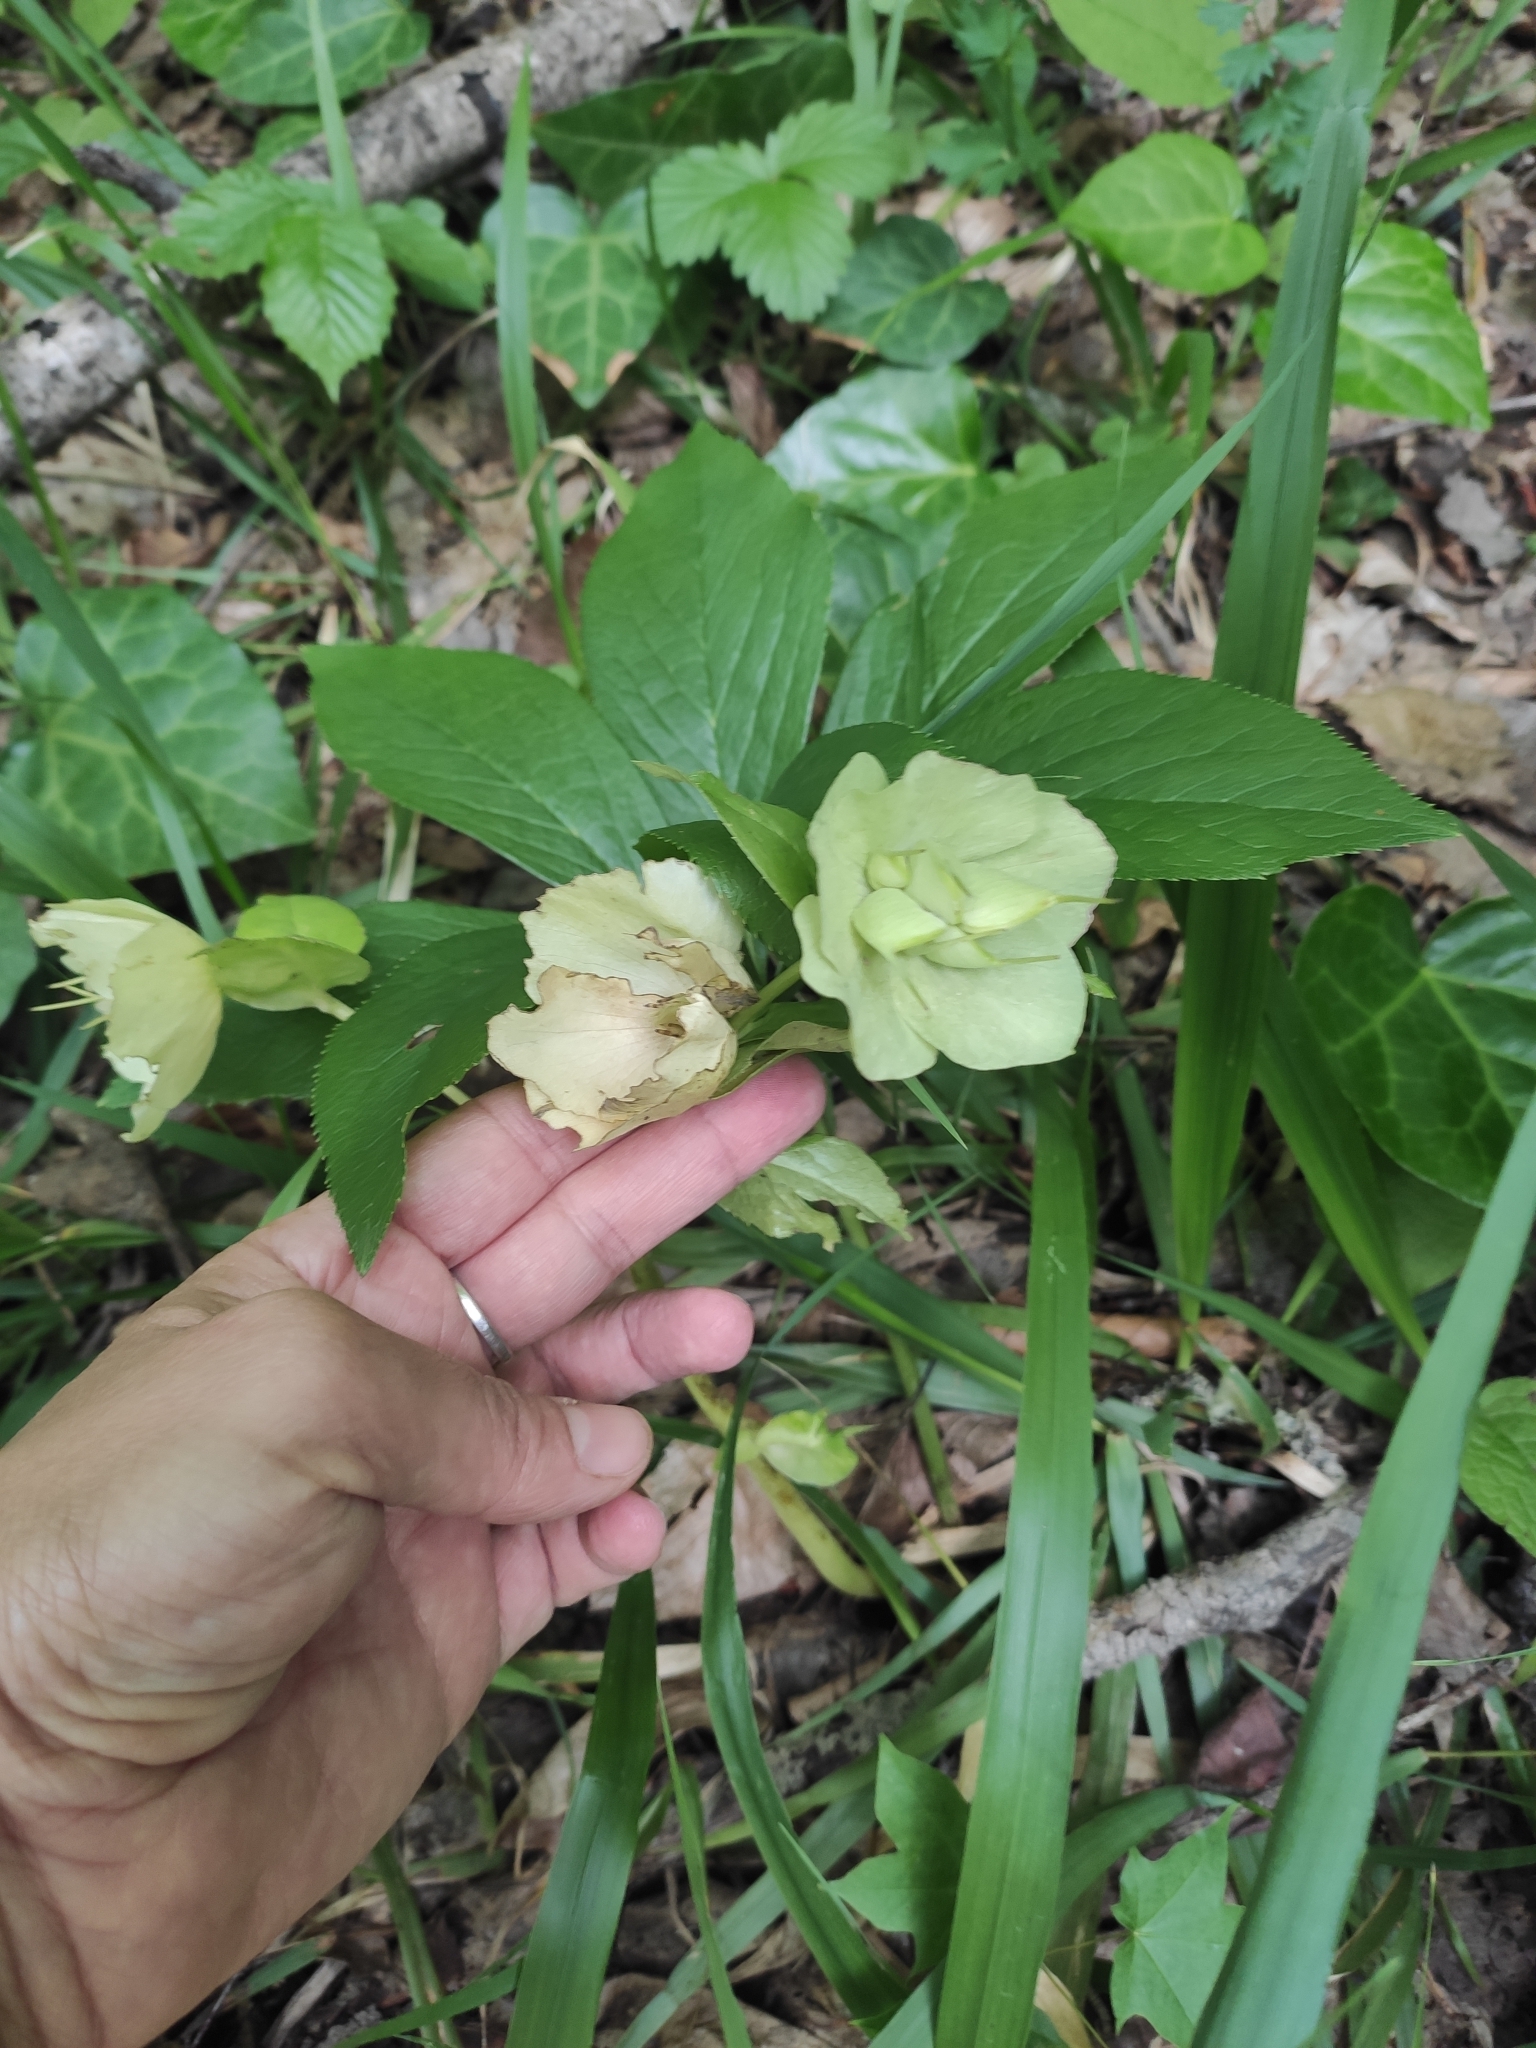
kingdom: Plantae
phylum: Tracheophyta
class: Magnoliopsida
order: Ranunculales
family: Ranunculaceae
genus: Helleborus
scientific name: Helleborus orientalis
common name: Lenten-rose
